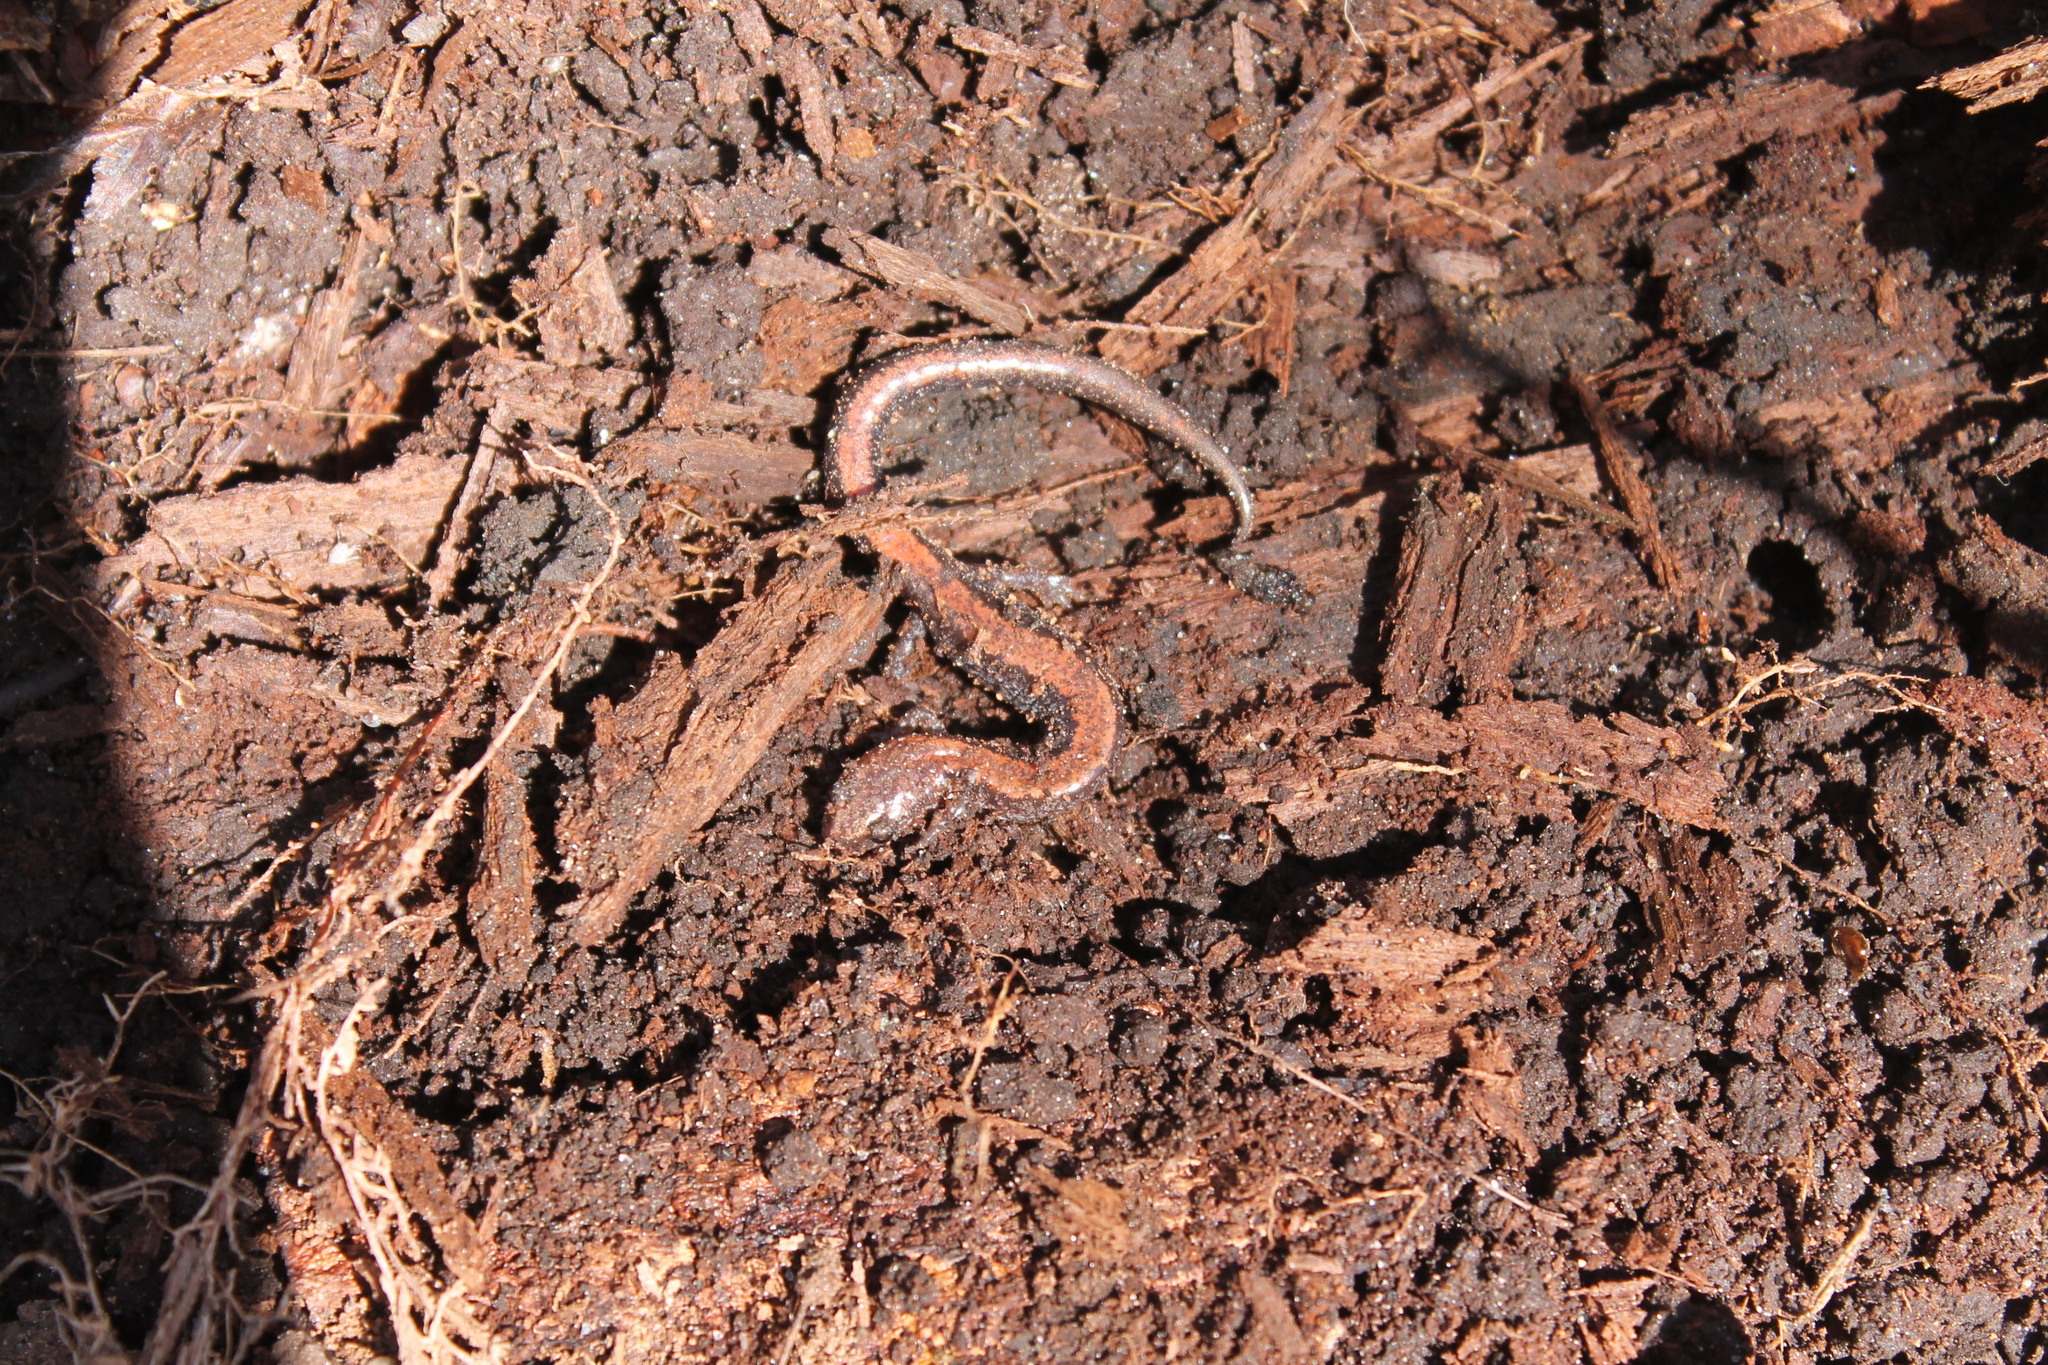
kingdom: Animalia
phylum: Chordata
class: Amphibia
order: Caudata
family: Plethodontidae
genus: Plethodon
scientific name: Plethodon cinereus
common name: Redback salamander
